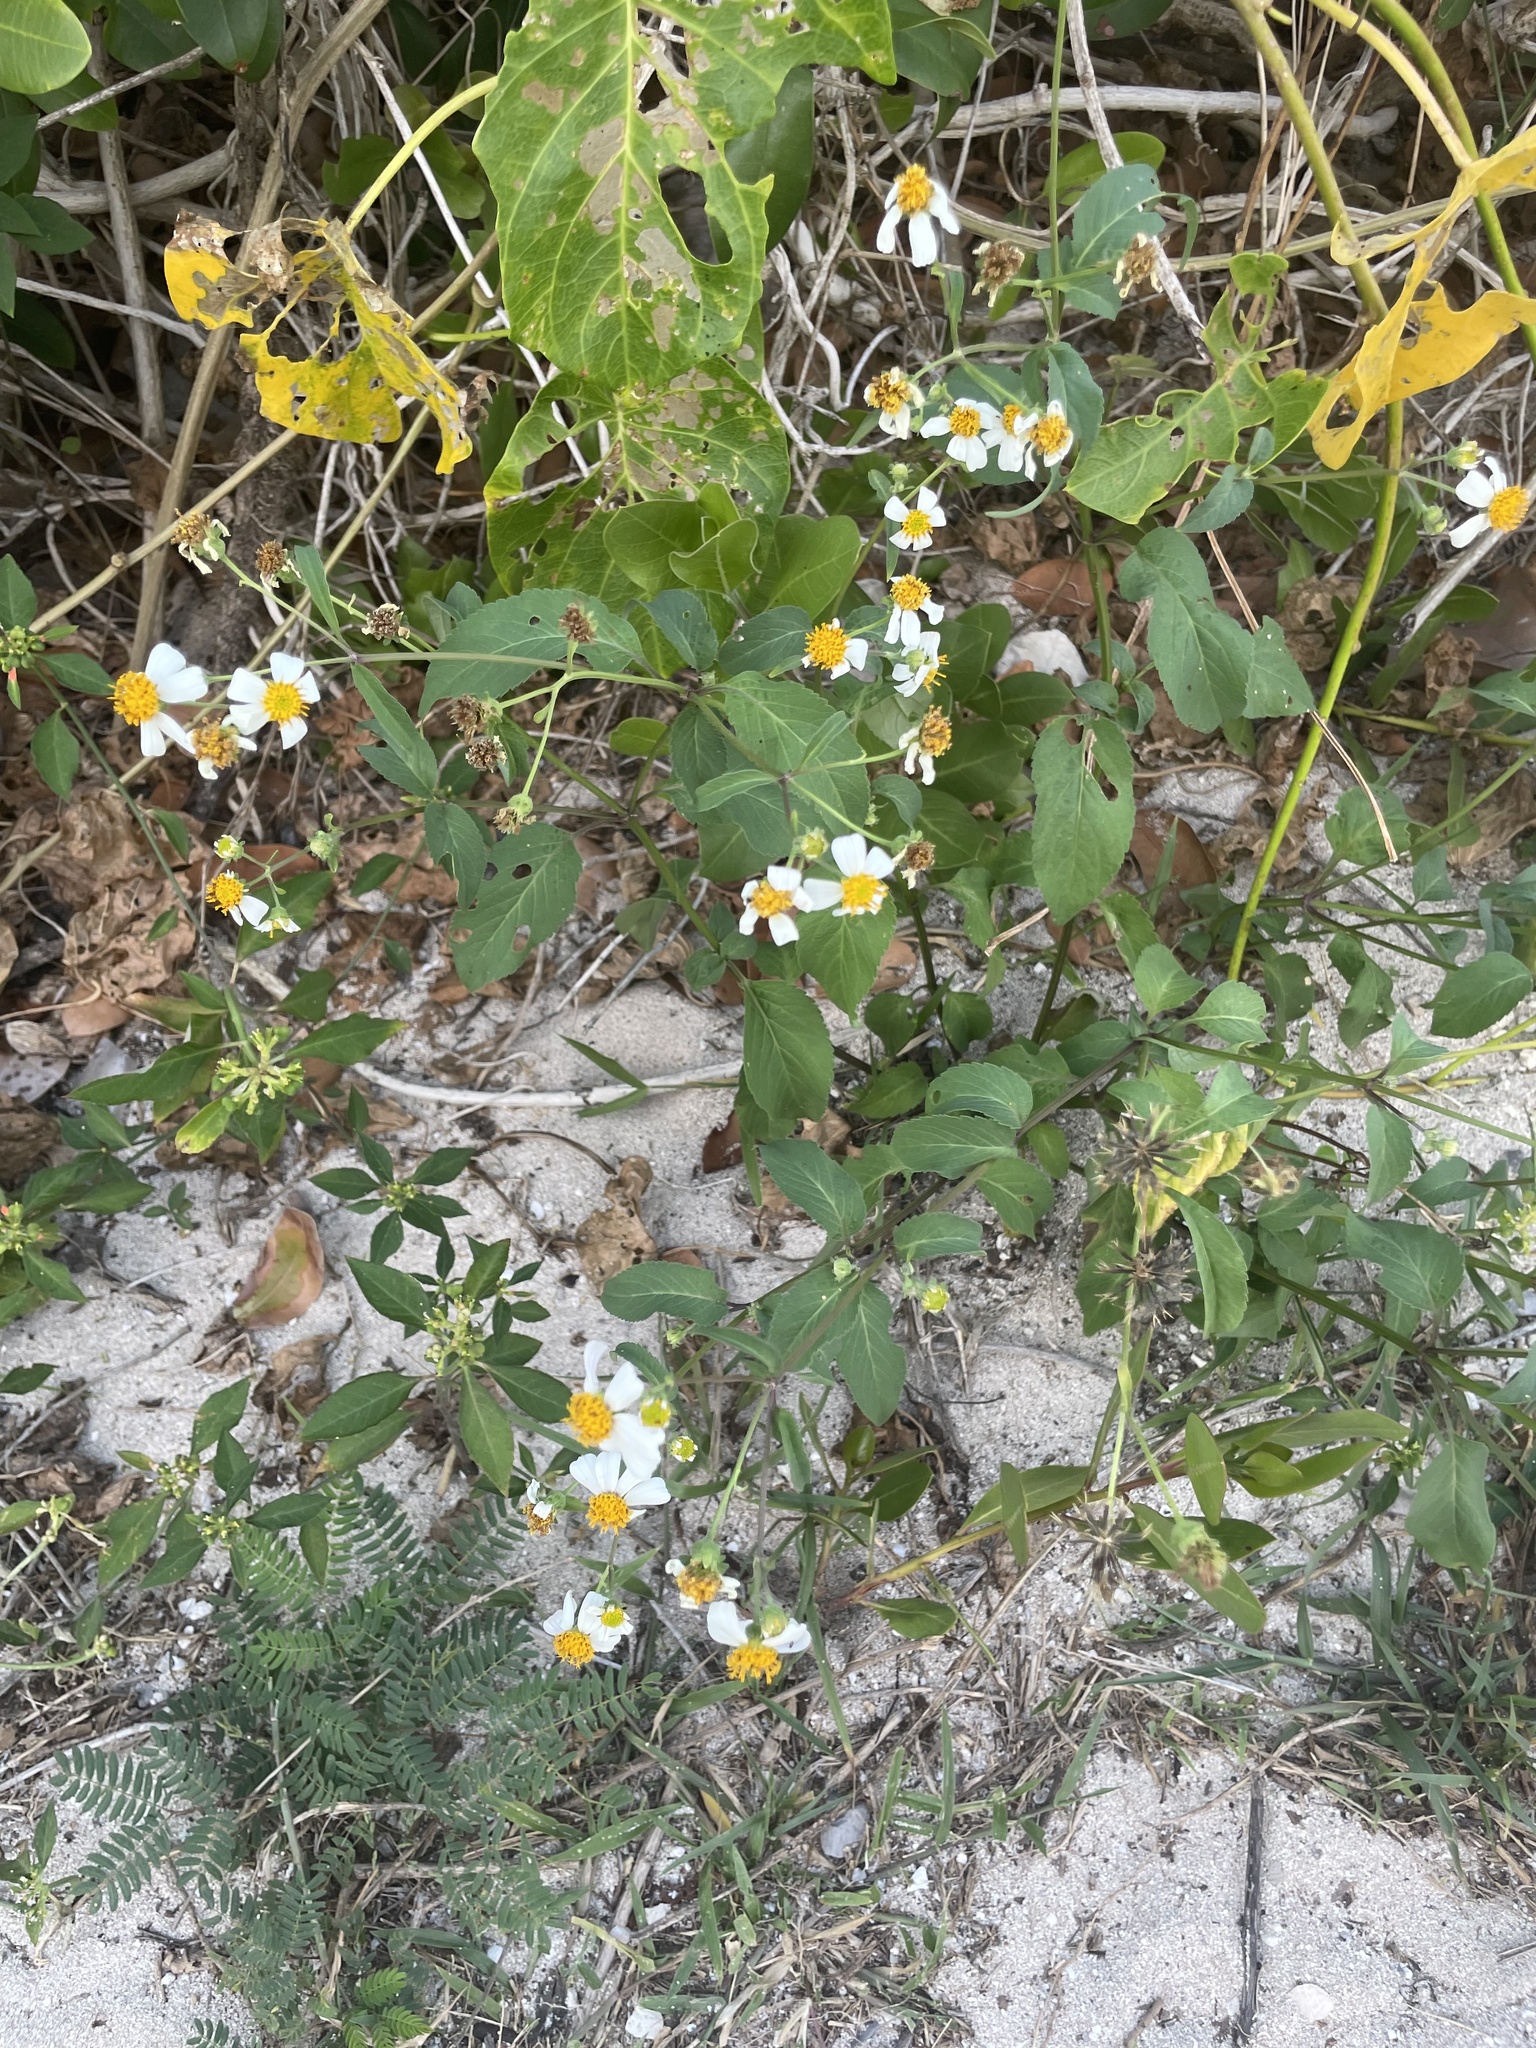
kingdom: Plantae
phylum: Tracheophyta
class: Magnoliopsida
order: Asterales
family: Asteraceae
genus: Bidens
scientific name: Bidens alba
